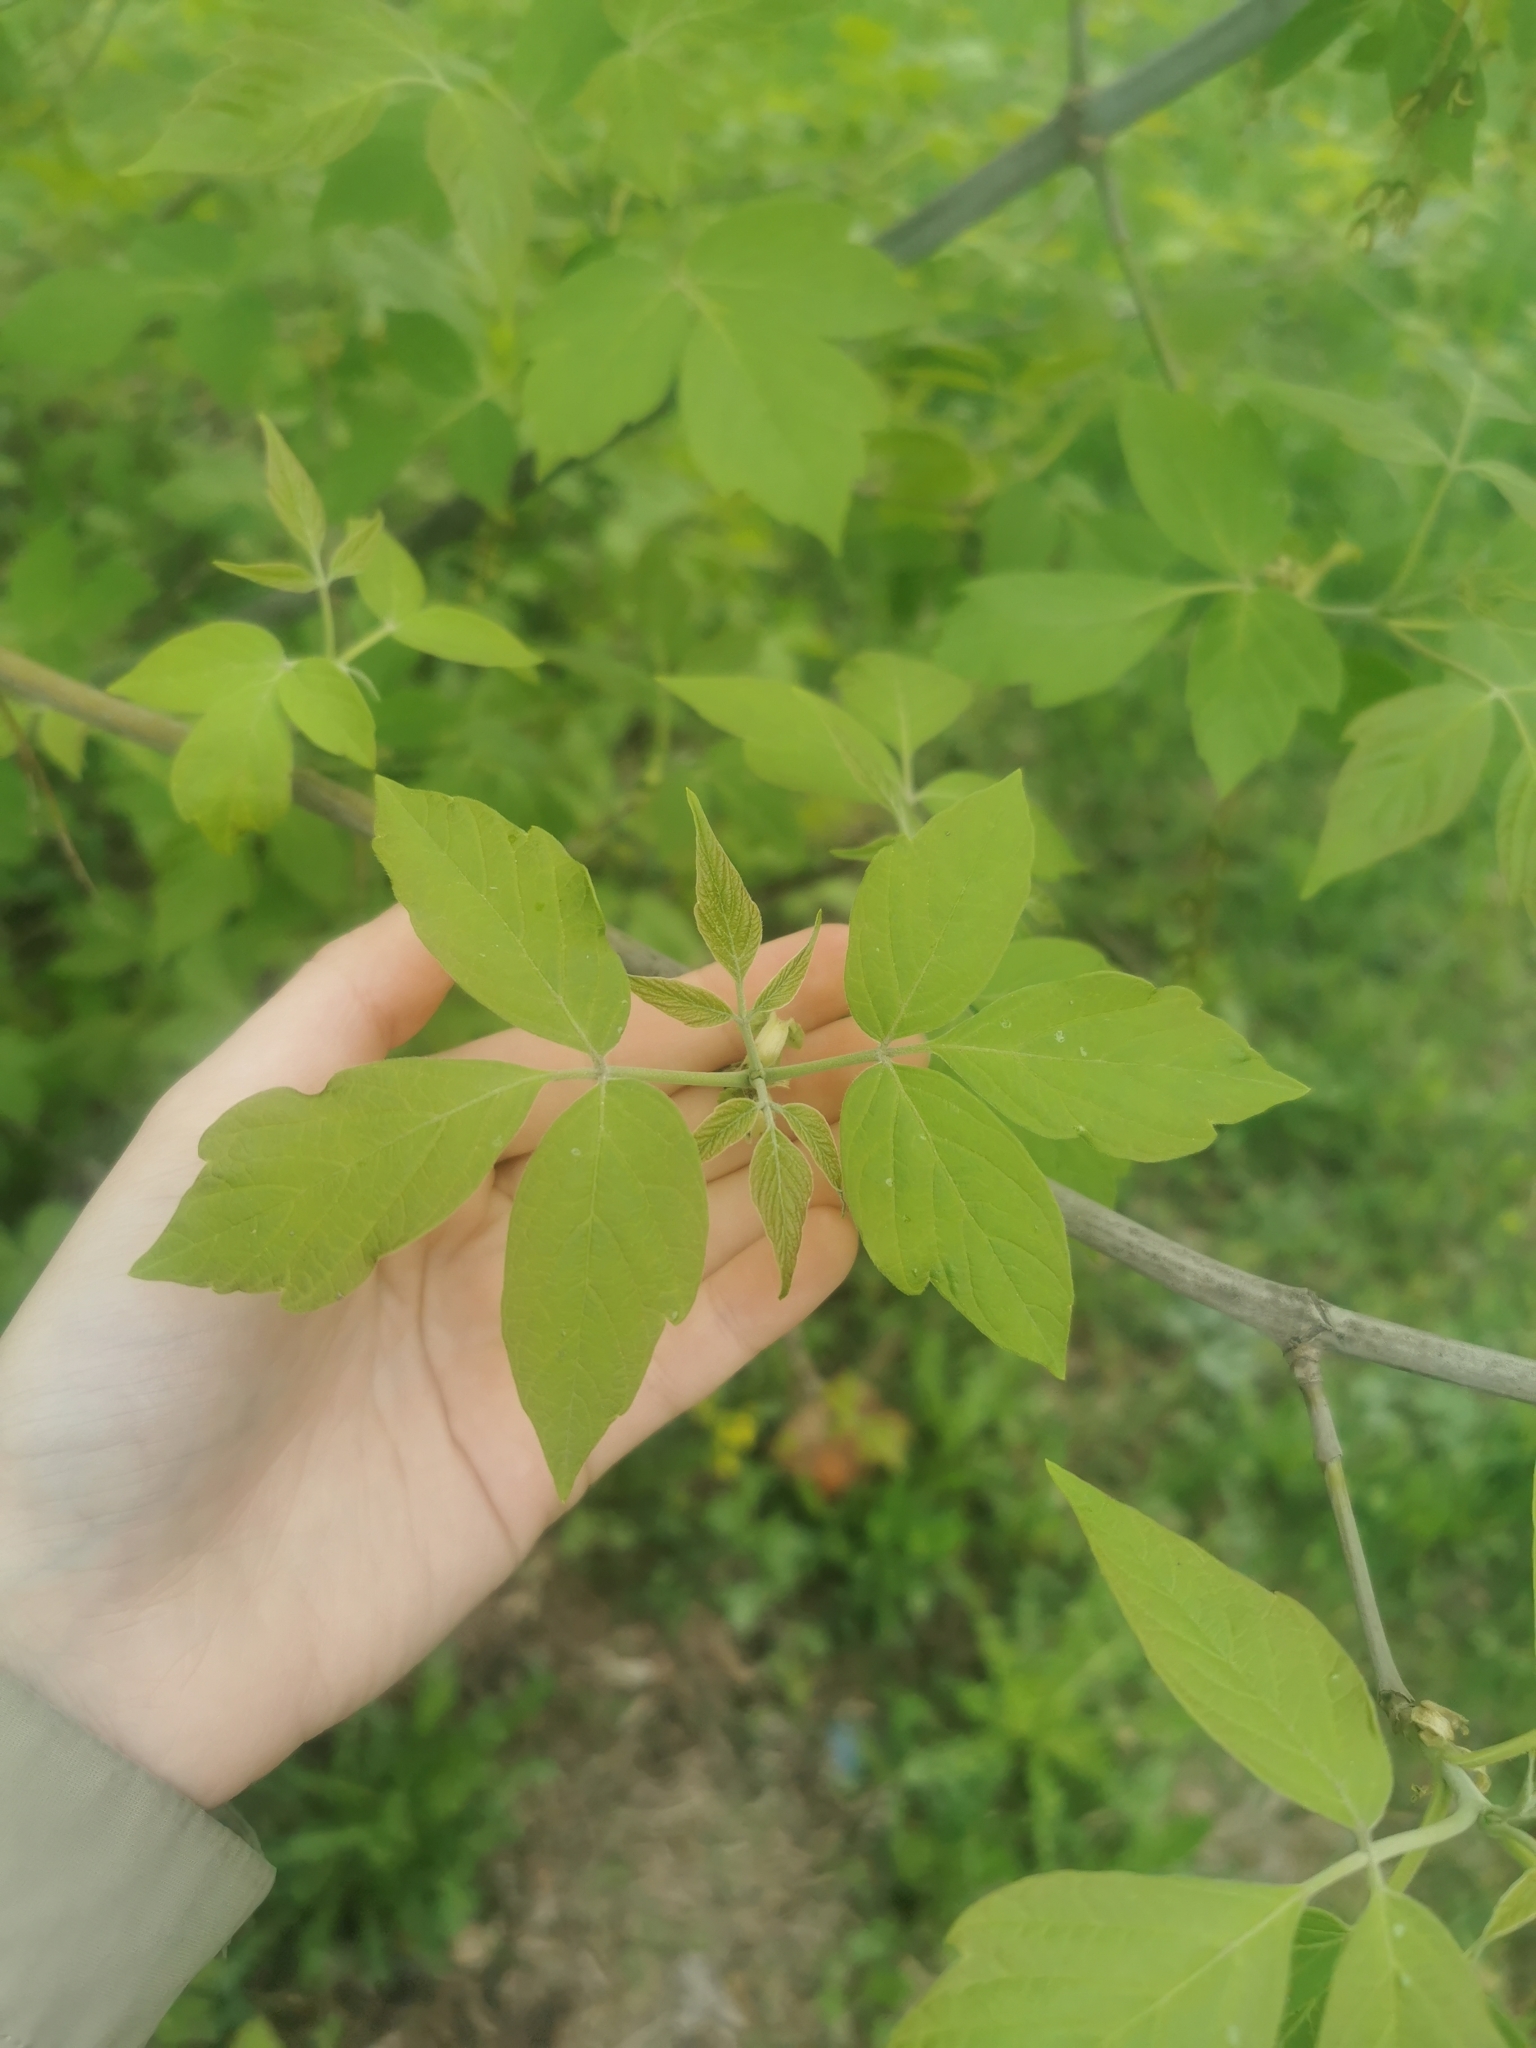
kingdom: Plantae
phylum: Tracheophyta
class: Magnoliopsida
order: Sapindales
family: Sapindaceae
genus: Acer
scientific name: Acer negundo
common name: Ashleaf maple
